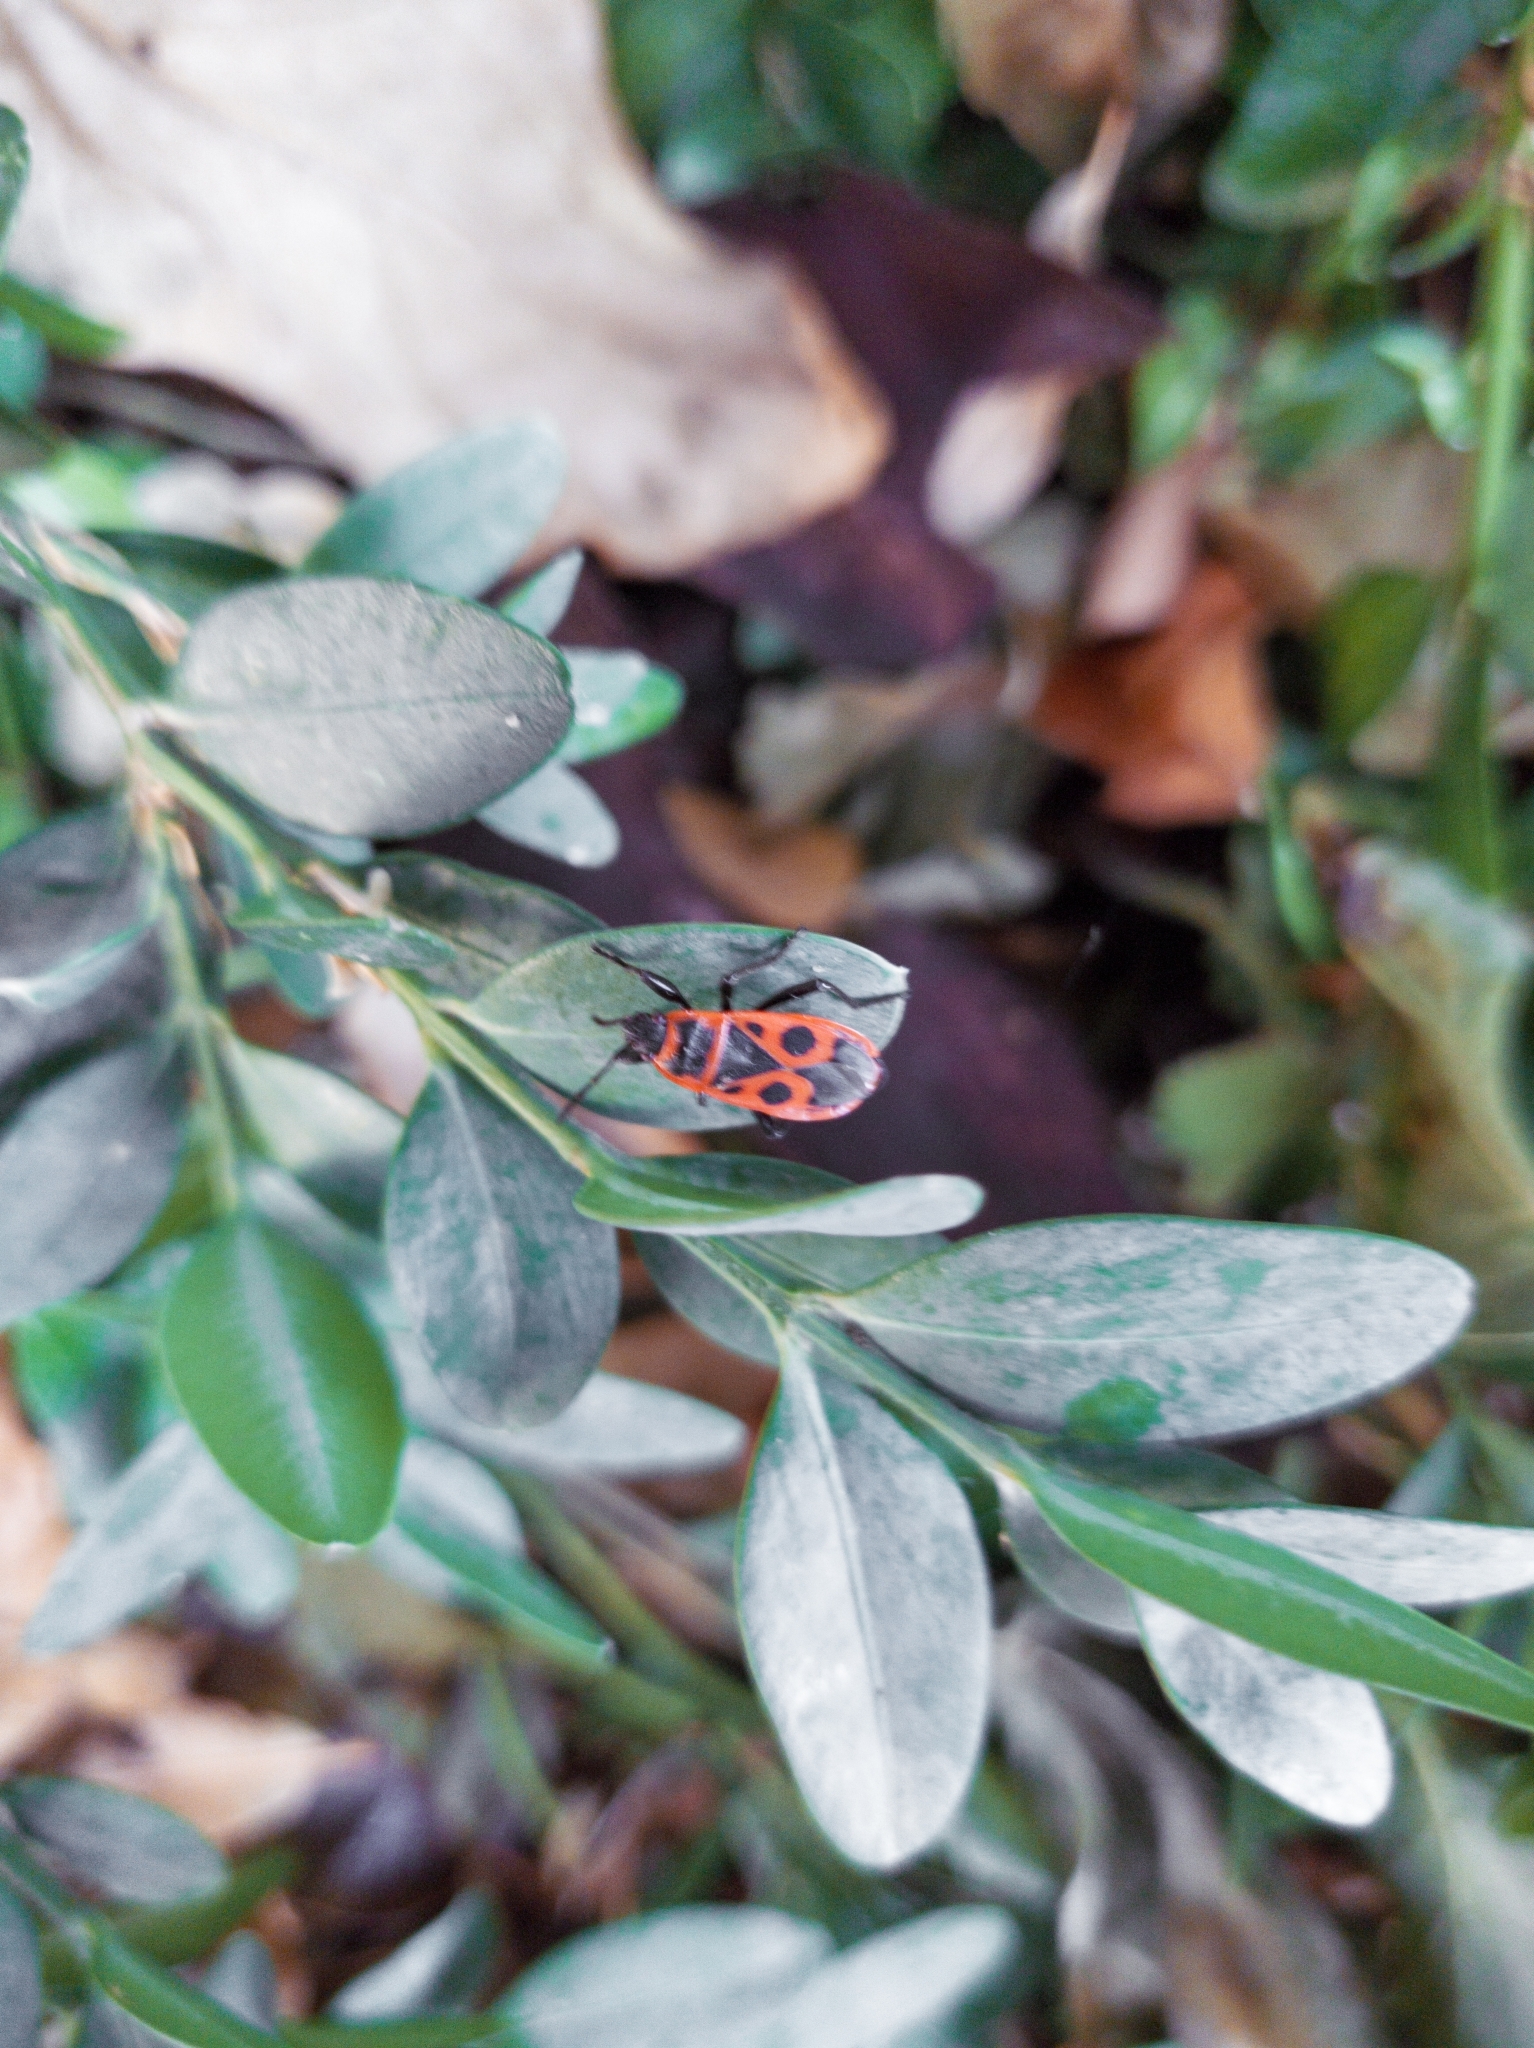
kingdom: Animalia
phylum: Arthropoda
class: Insecta
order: Hemiptera
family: Pyrrhocoridae
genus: Pyrrhocoris
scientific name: Pyrrhocoris apterus
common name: Firebug
